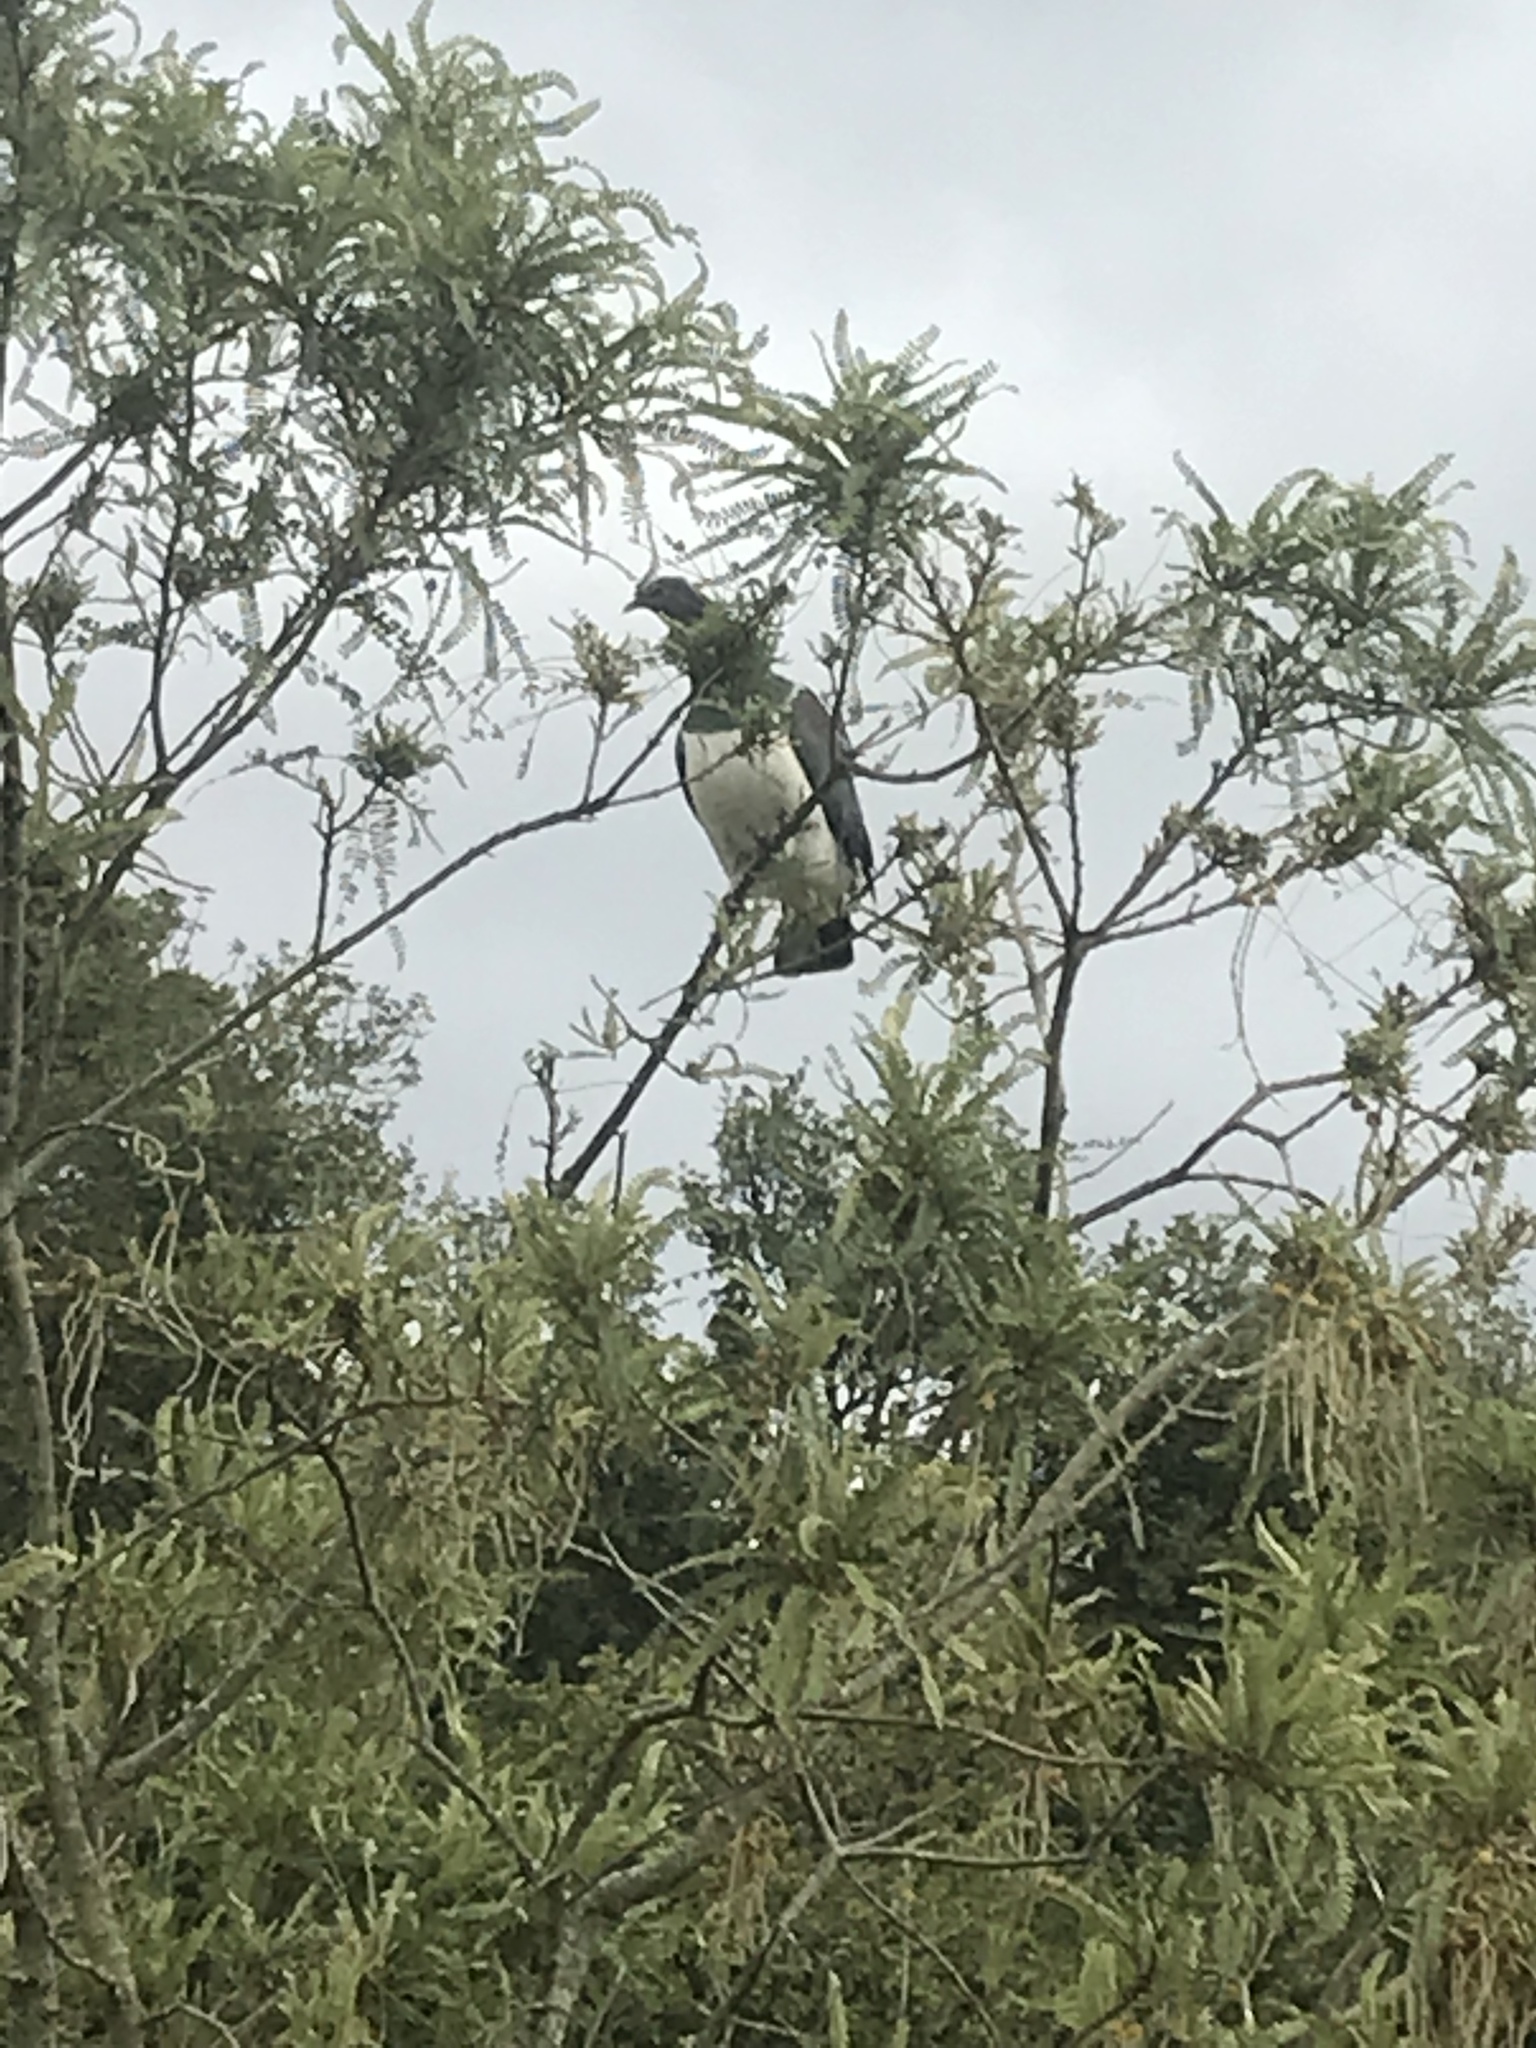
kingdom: Animalia
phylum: Chordata
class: Aves
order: Columbiformes
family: Columbidae
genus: Hemiphaga
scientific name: Hemiphaga novaeseelandiae
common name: New zealand pigeon
